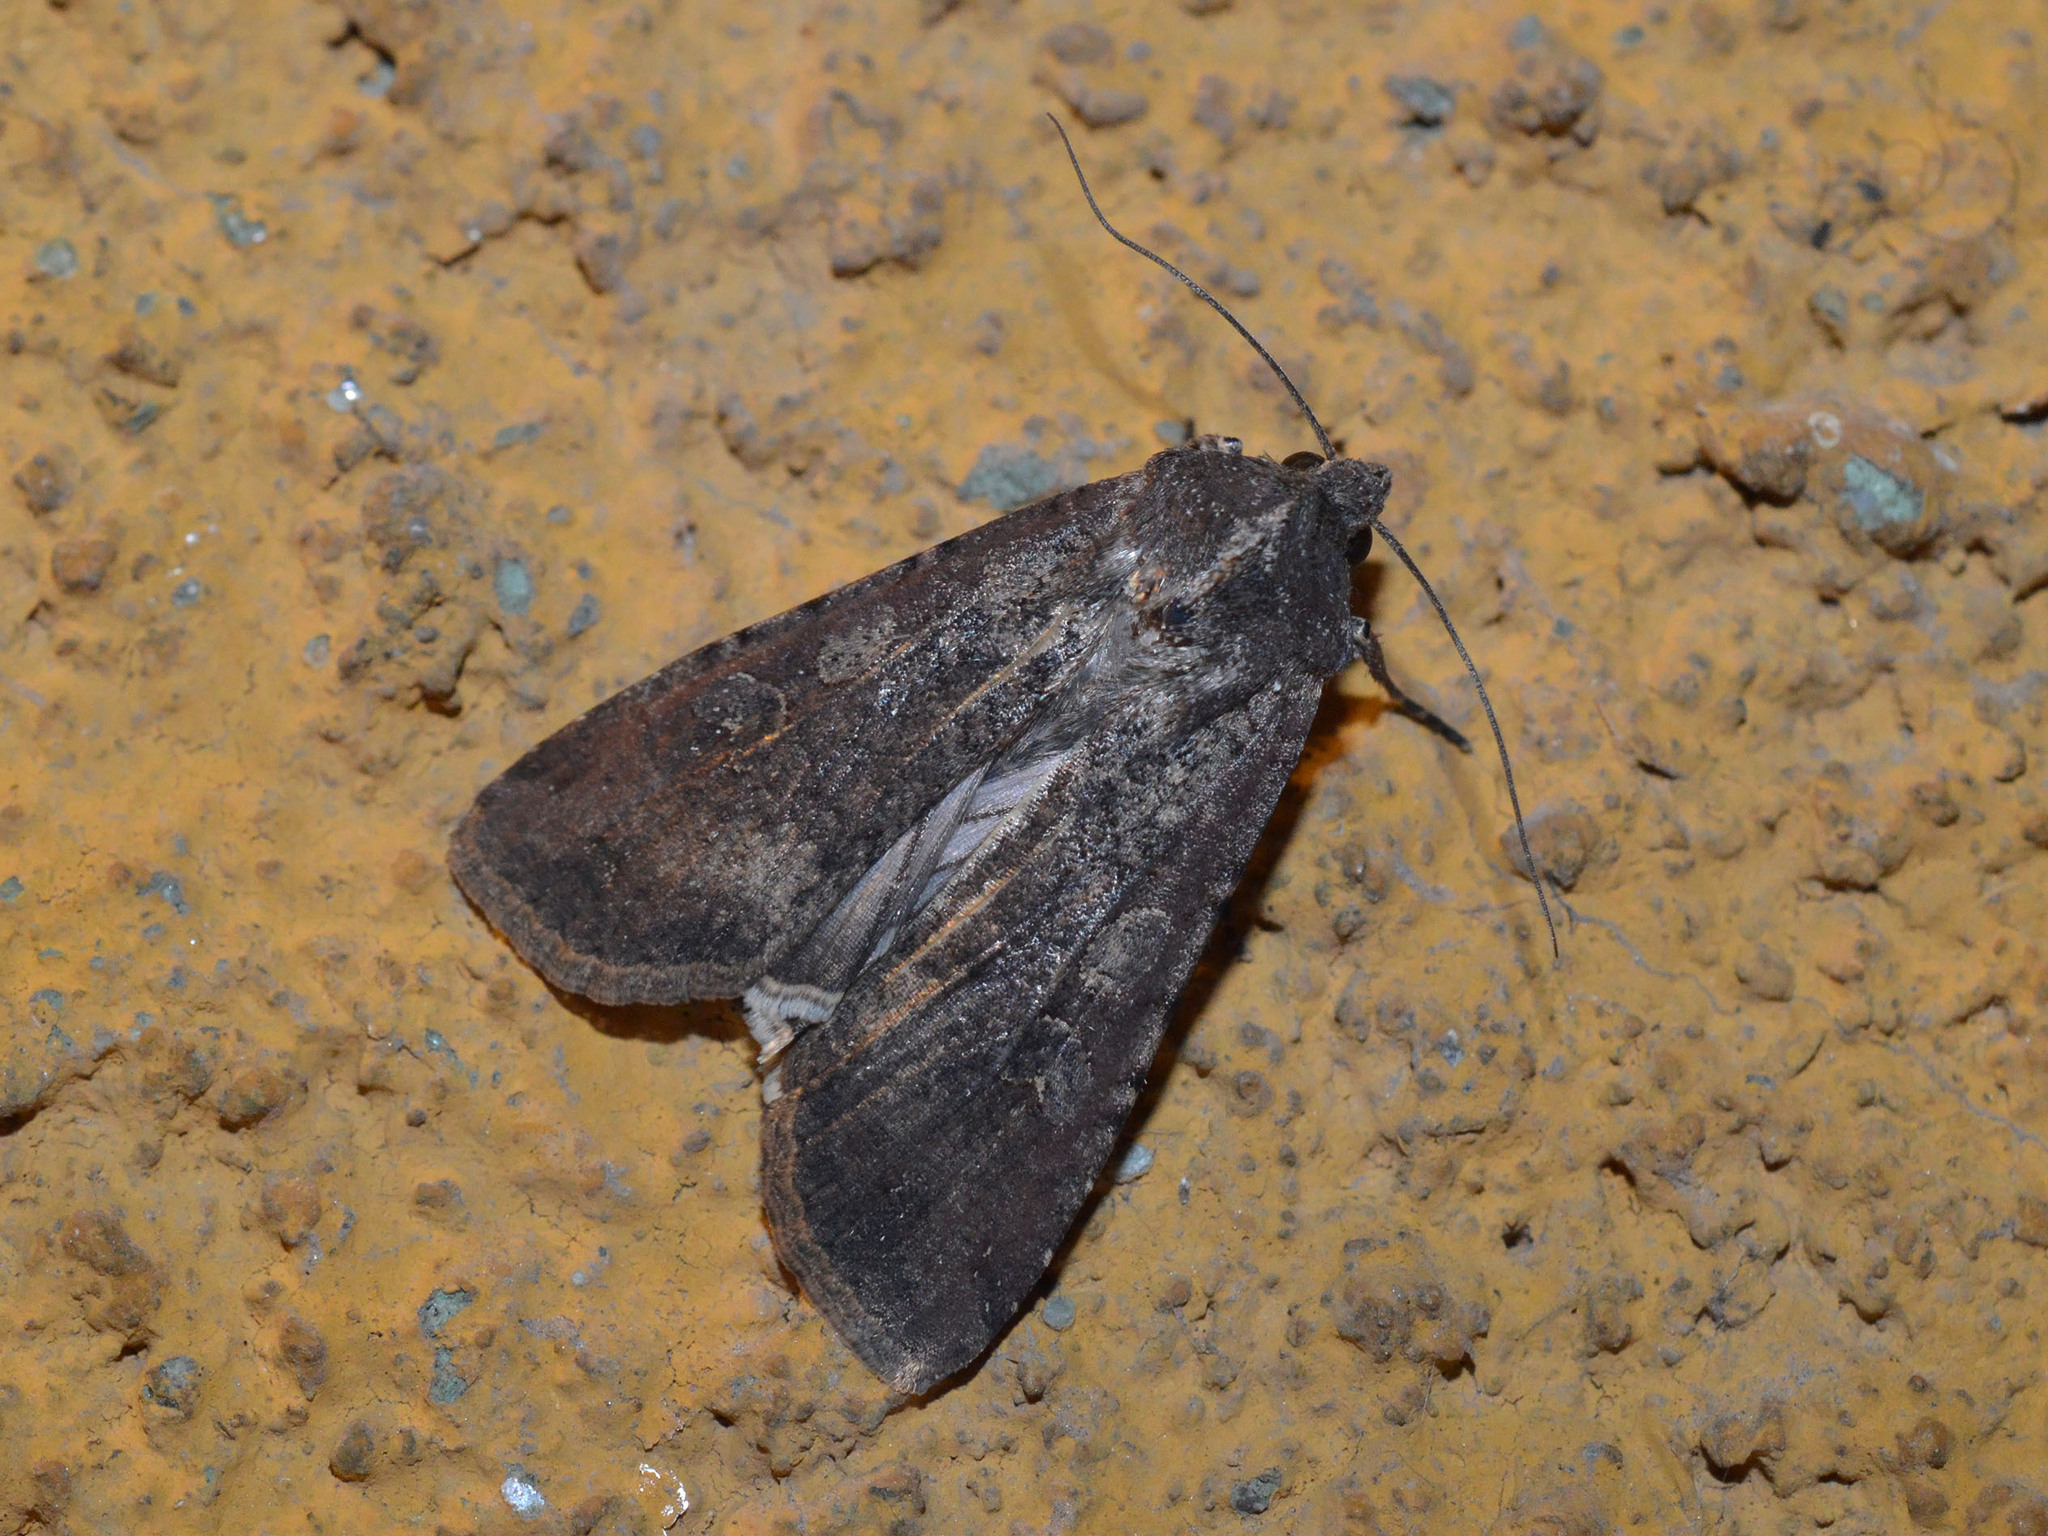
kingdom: Animalia
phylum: Arthropoda
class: Insecta
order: Lepidoptera
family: Noctuidae
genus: Peridroma
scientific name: Peridroma saucia
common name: Pearly underwing
